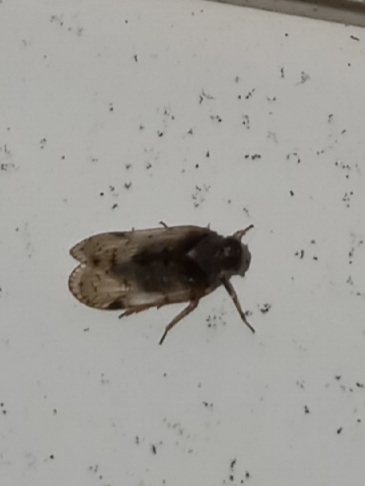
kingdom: Animalia
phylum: Arthropoda
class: Insecta
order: Hemiptera
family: Cixiidae
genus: Melanoliarus
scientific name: Melanoliarus placitus
